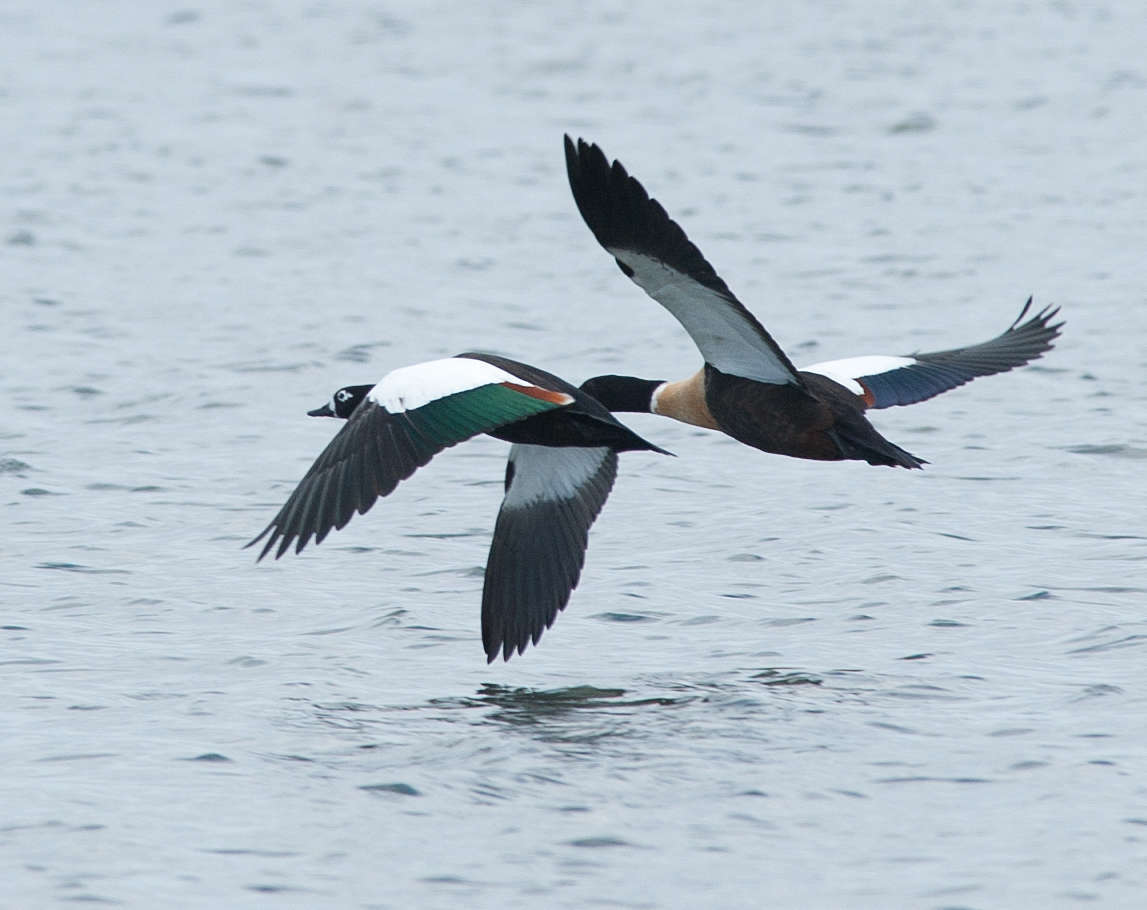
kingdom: Animalia
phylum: Chordata
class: Aves
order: Anseriformes
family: Anatidae
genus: Tadorna
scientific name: Tadorna tadornoides
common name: Australian shelduck
